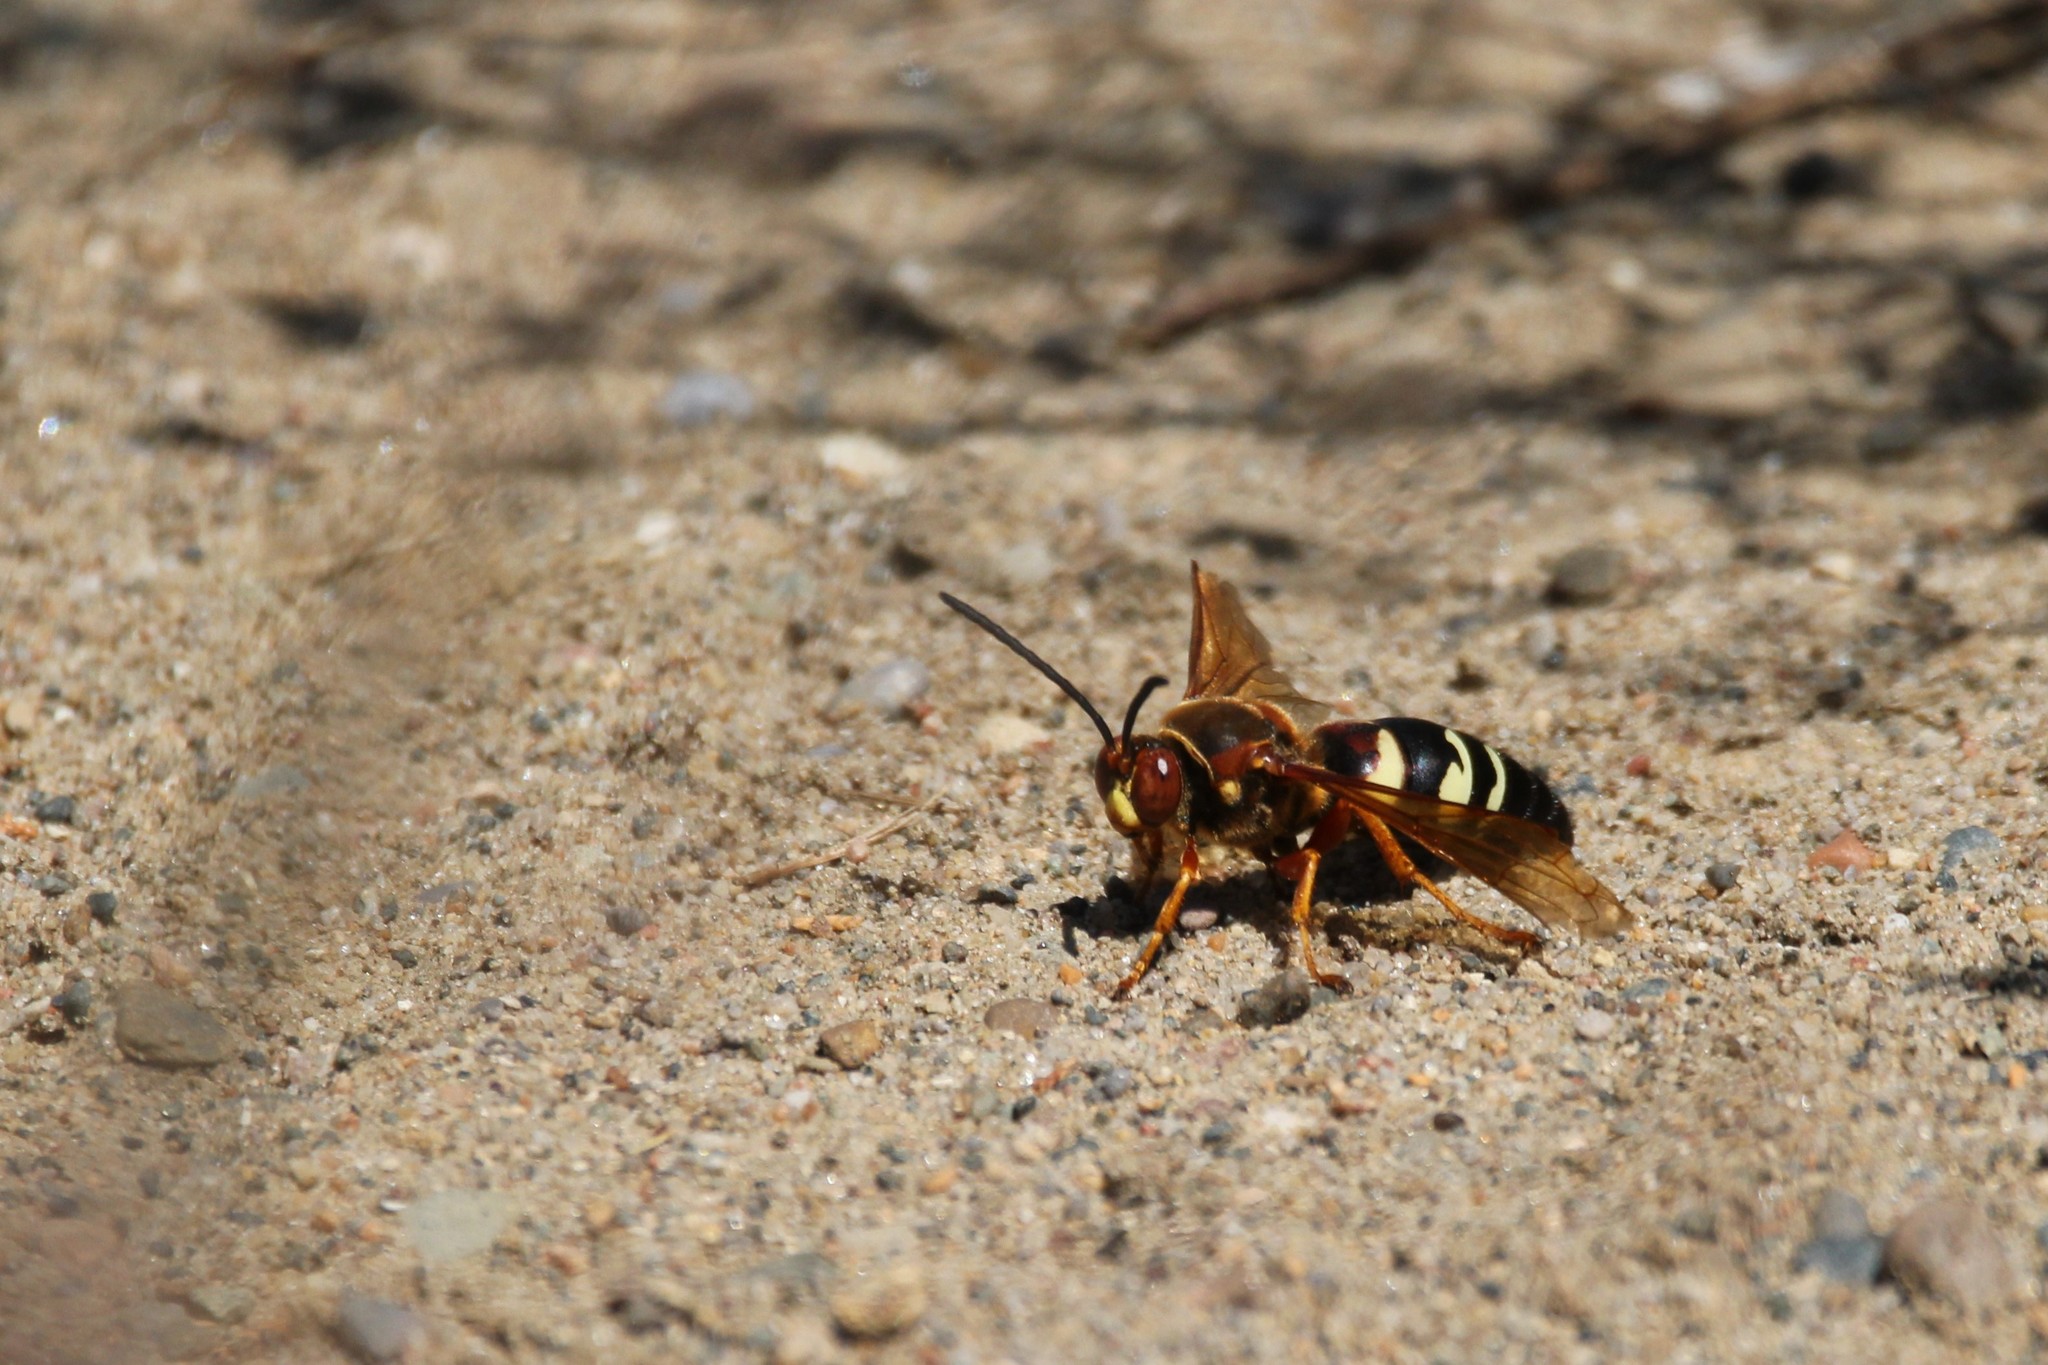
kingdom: Animalia
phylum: Arthropoda
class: Insecta
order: Hymenoptera
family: Crabronidae
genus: Sphecius
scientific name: Sphecius speciosus
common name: Cicada killer
